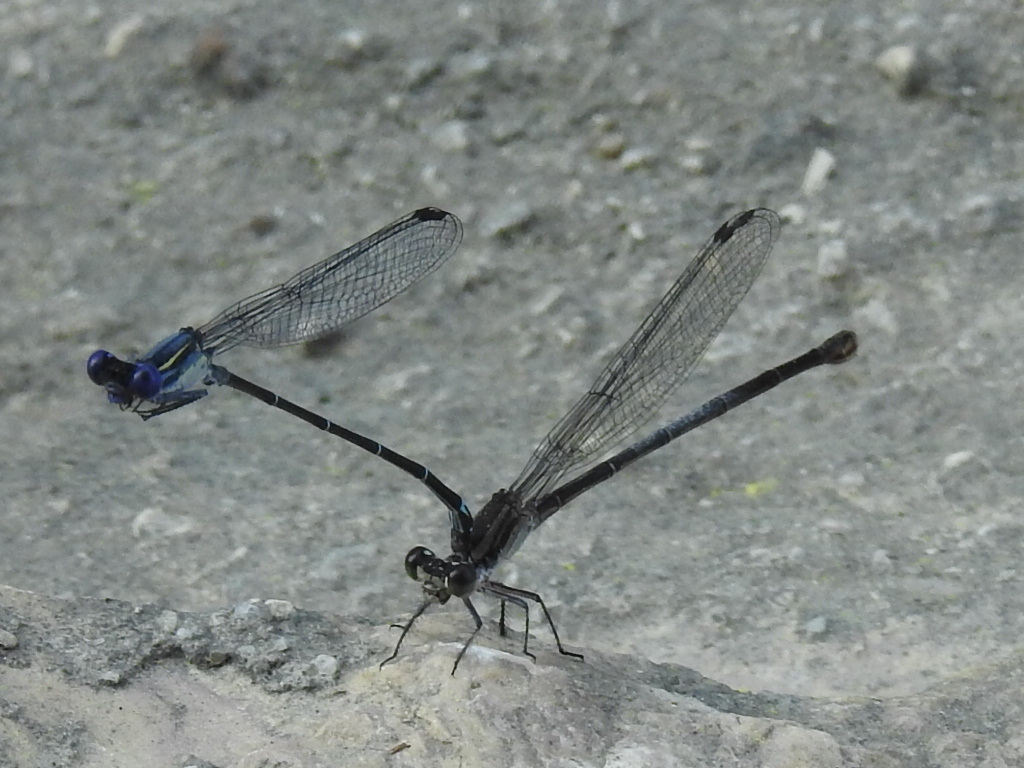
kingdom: Animalia
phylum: Arthropoda
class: Insecta
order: Odonata
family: Coenagrionidae
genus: Argia
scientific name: Argia translata
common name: Dusky dancer
